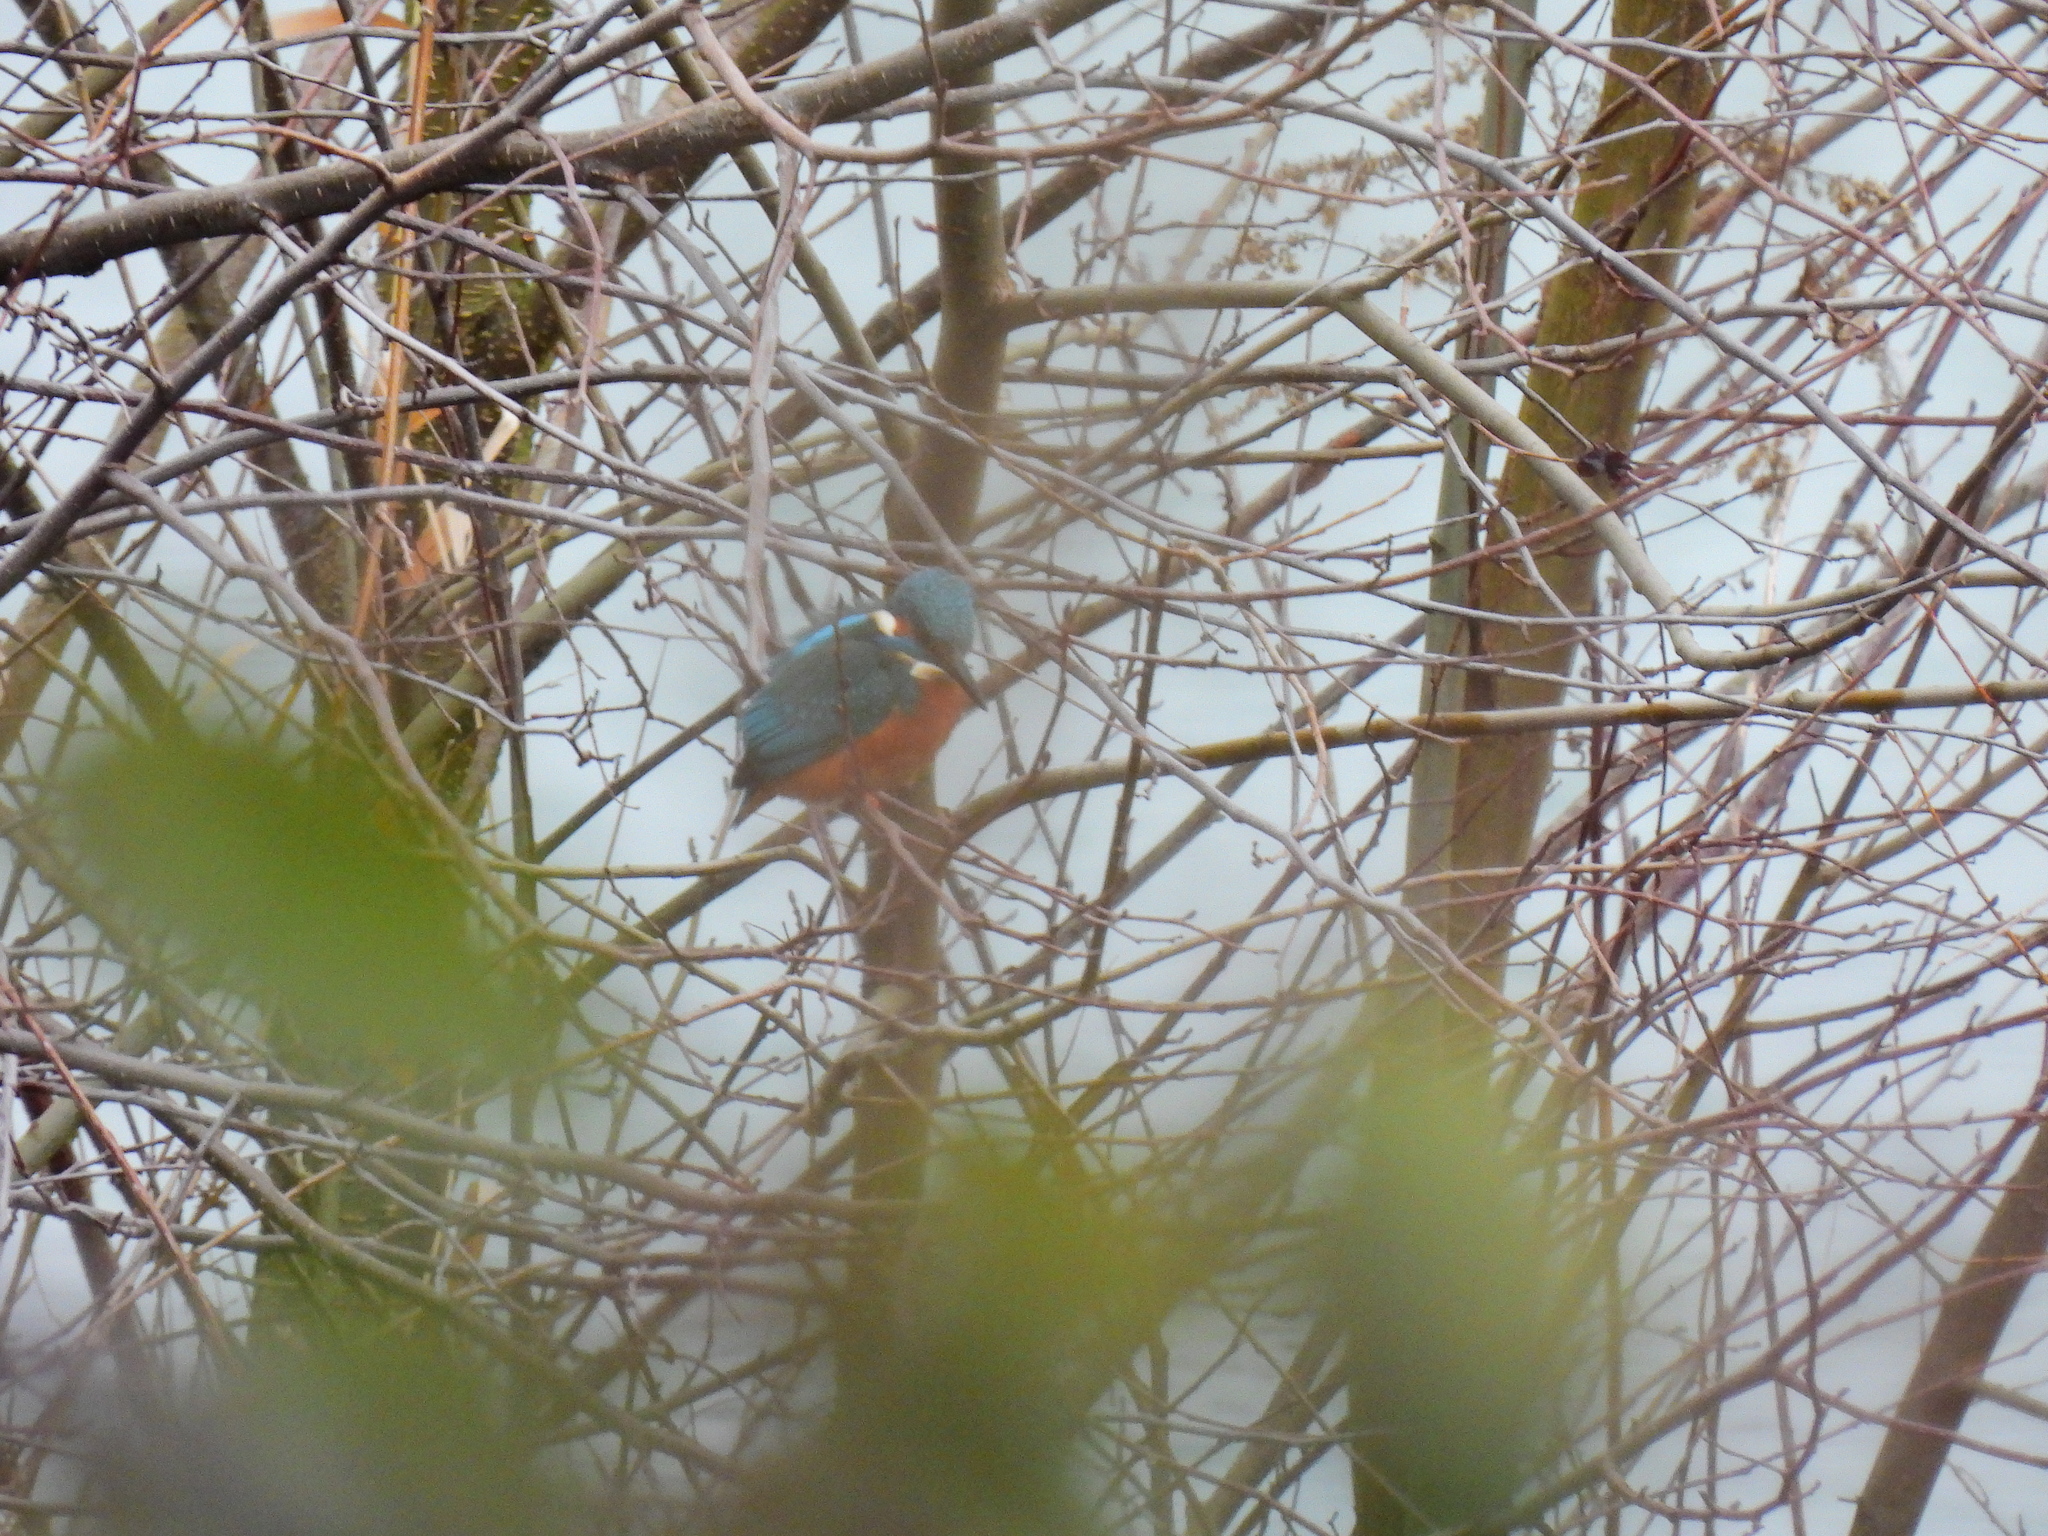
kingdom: Animalia
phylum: Chordata
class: Aves
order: Coraciiformes
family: Alcedinidae
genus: Alcedo
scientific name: Alcedo atthis
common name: Common kingfisher
